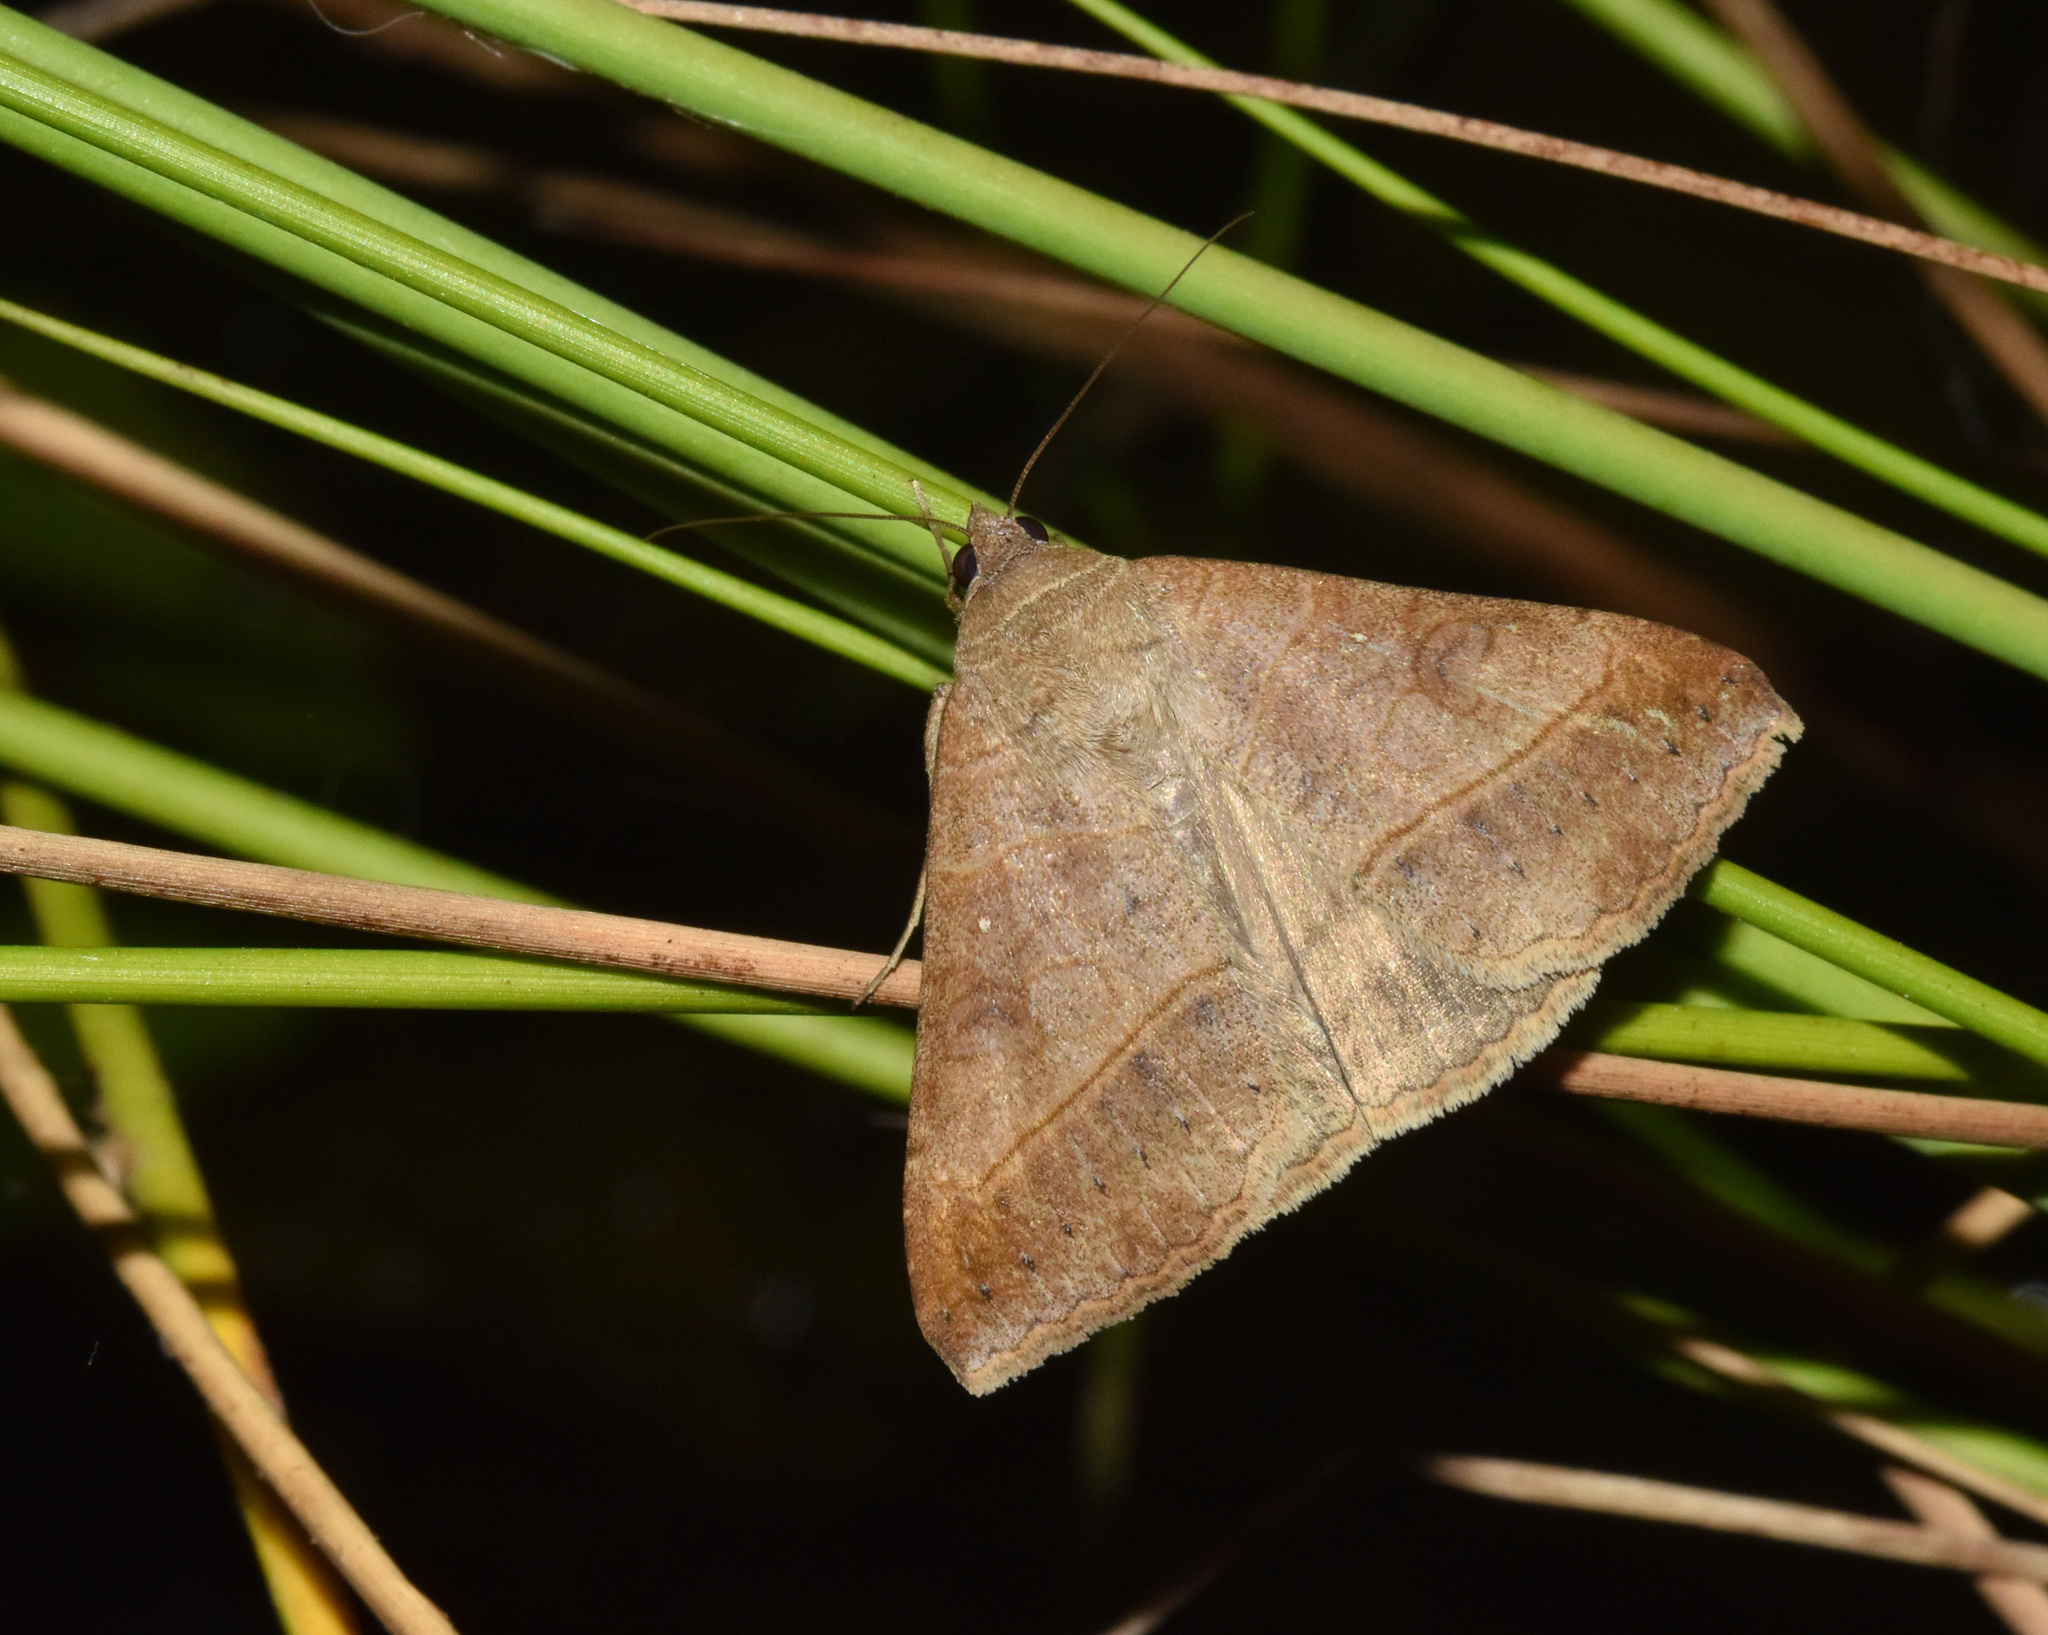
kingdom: Animalia
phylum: Arthropoda
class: Insecta
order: Lepidoptera
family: Erebidae
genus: Mocis
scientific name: Mocis conveniens
